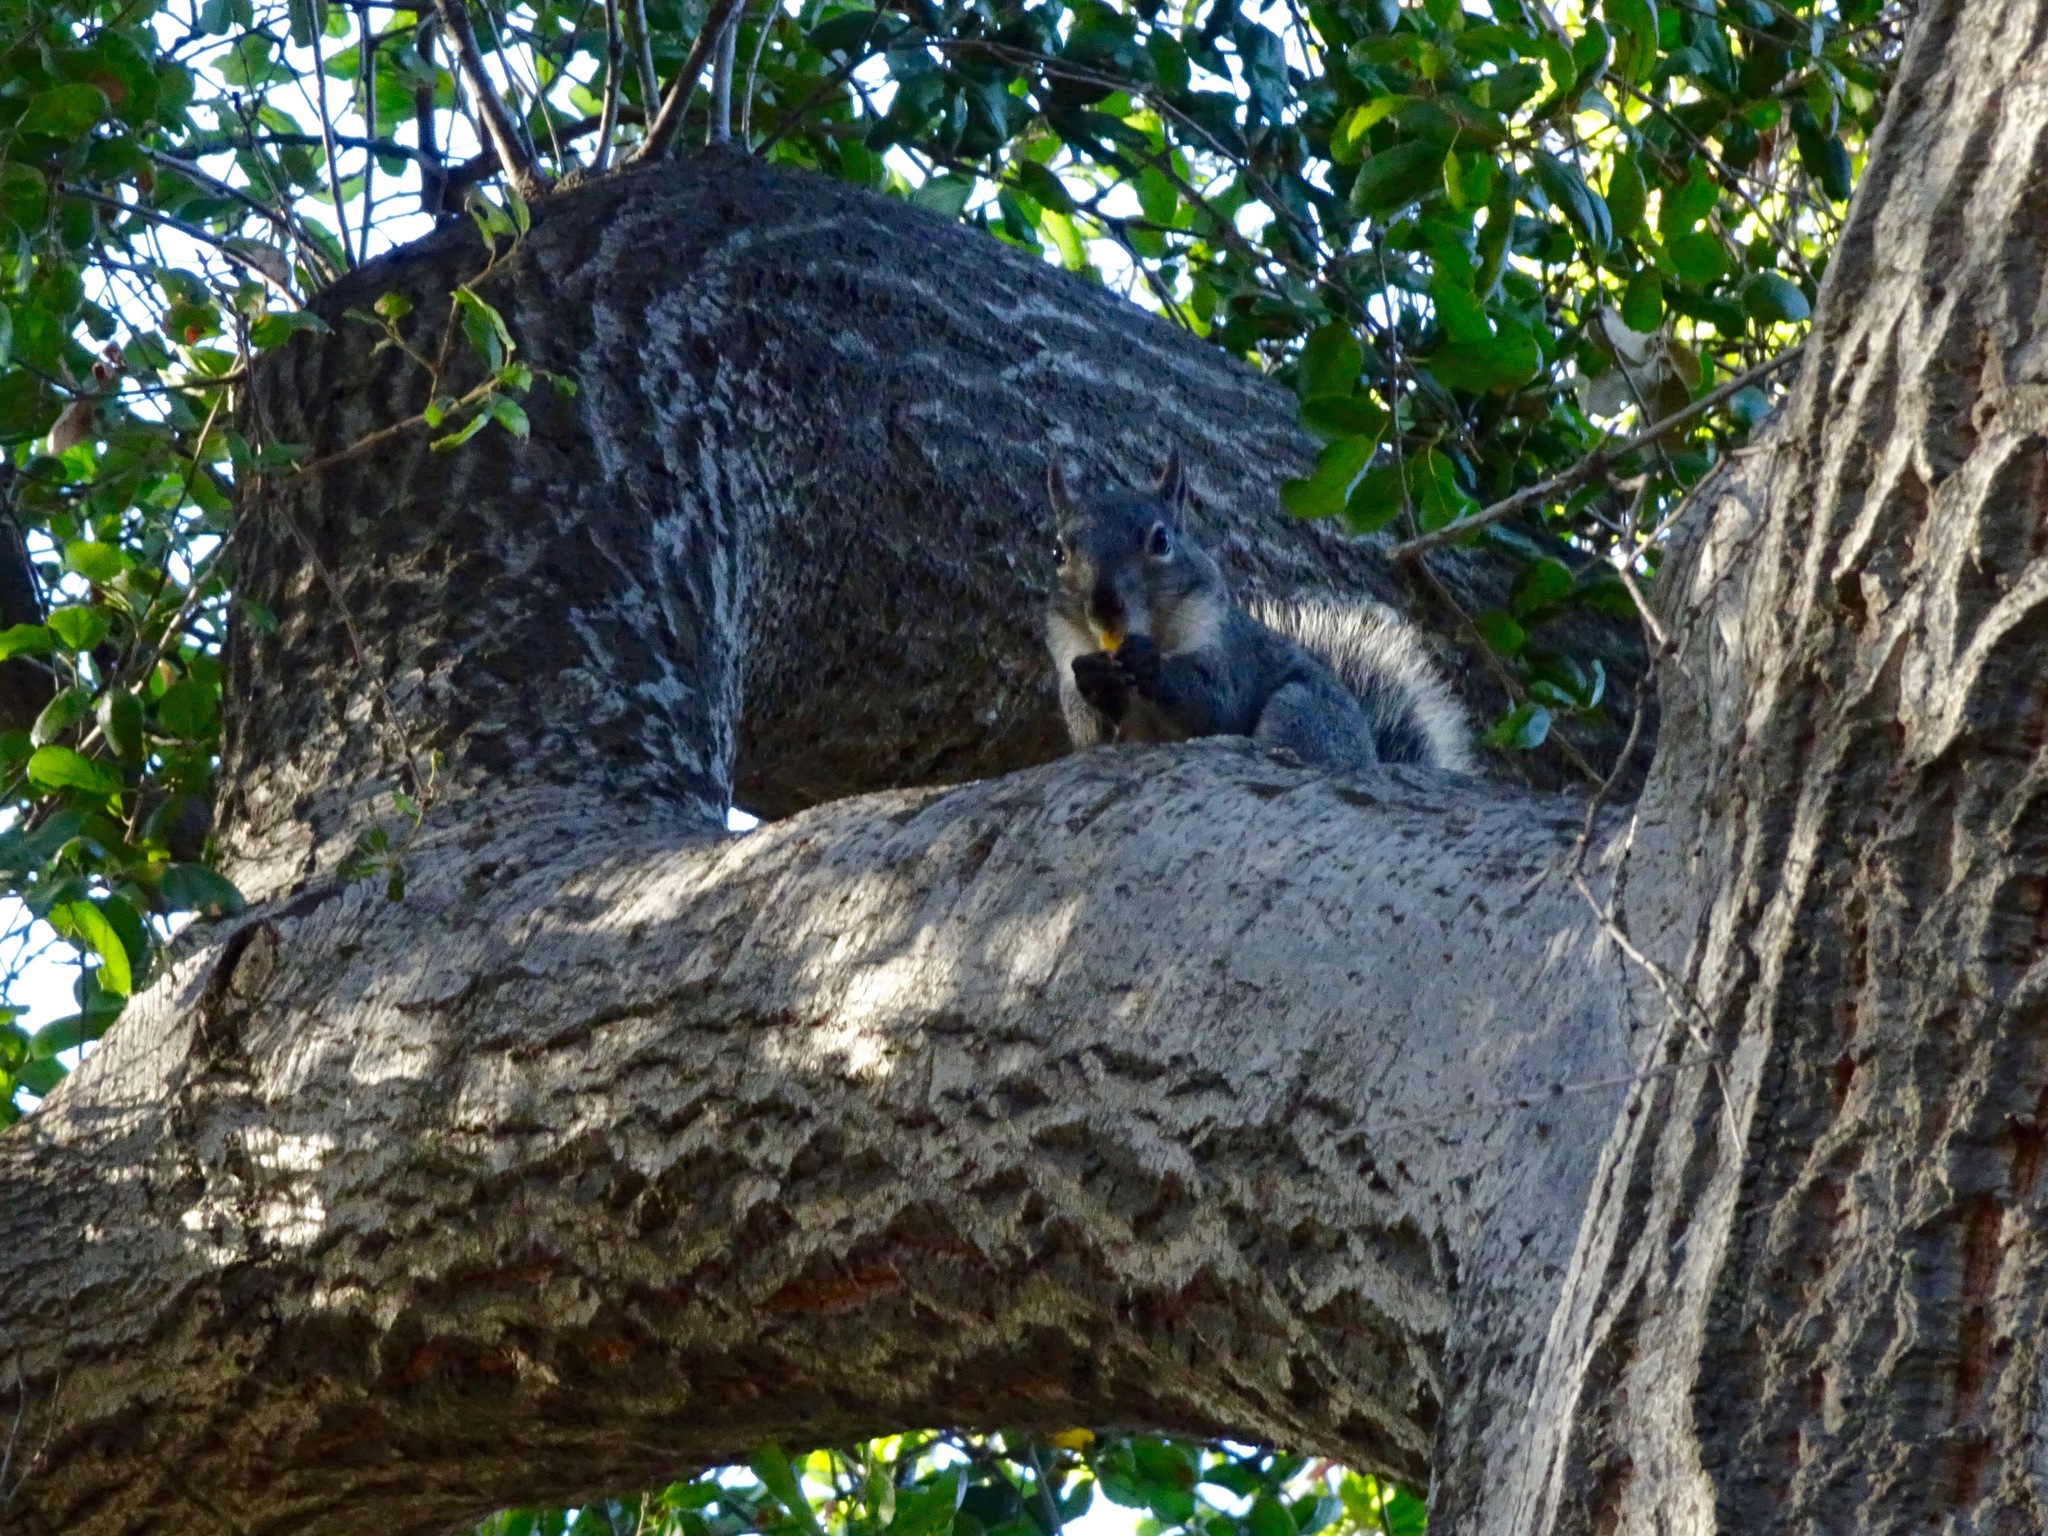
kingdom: Animalia
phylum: Chordata
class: Mammalia
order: Rodentia
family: Sciuridae
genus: Sciurus
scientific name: Sciurus griseus
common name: Western gray squirrel
